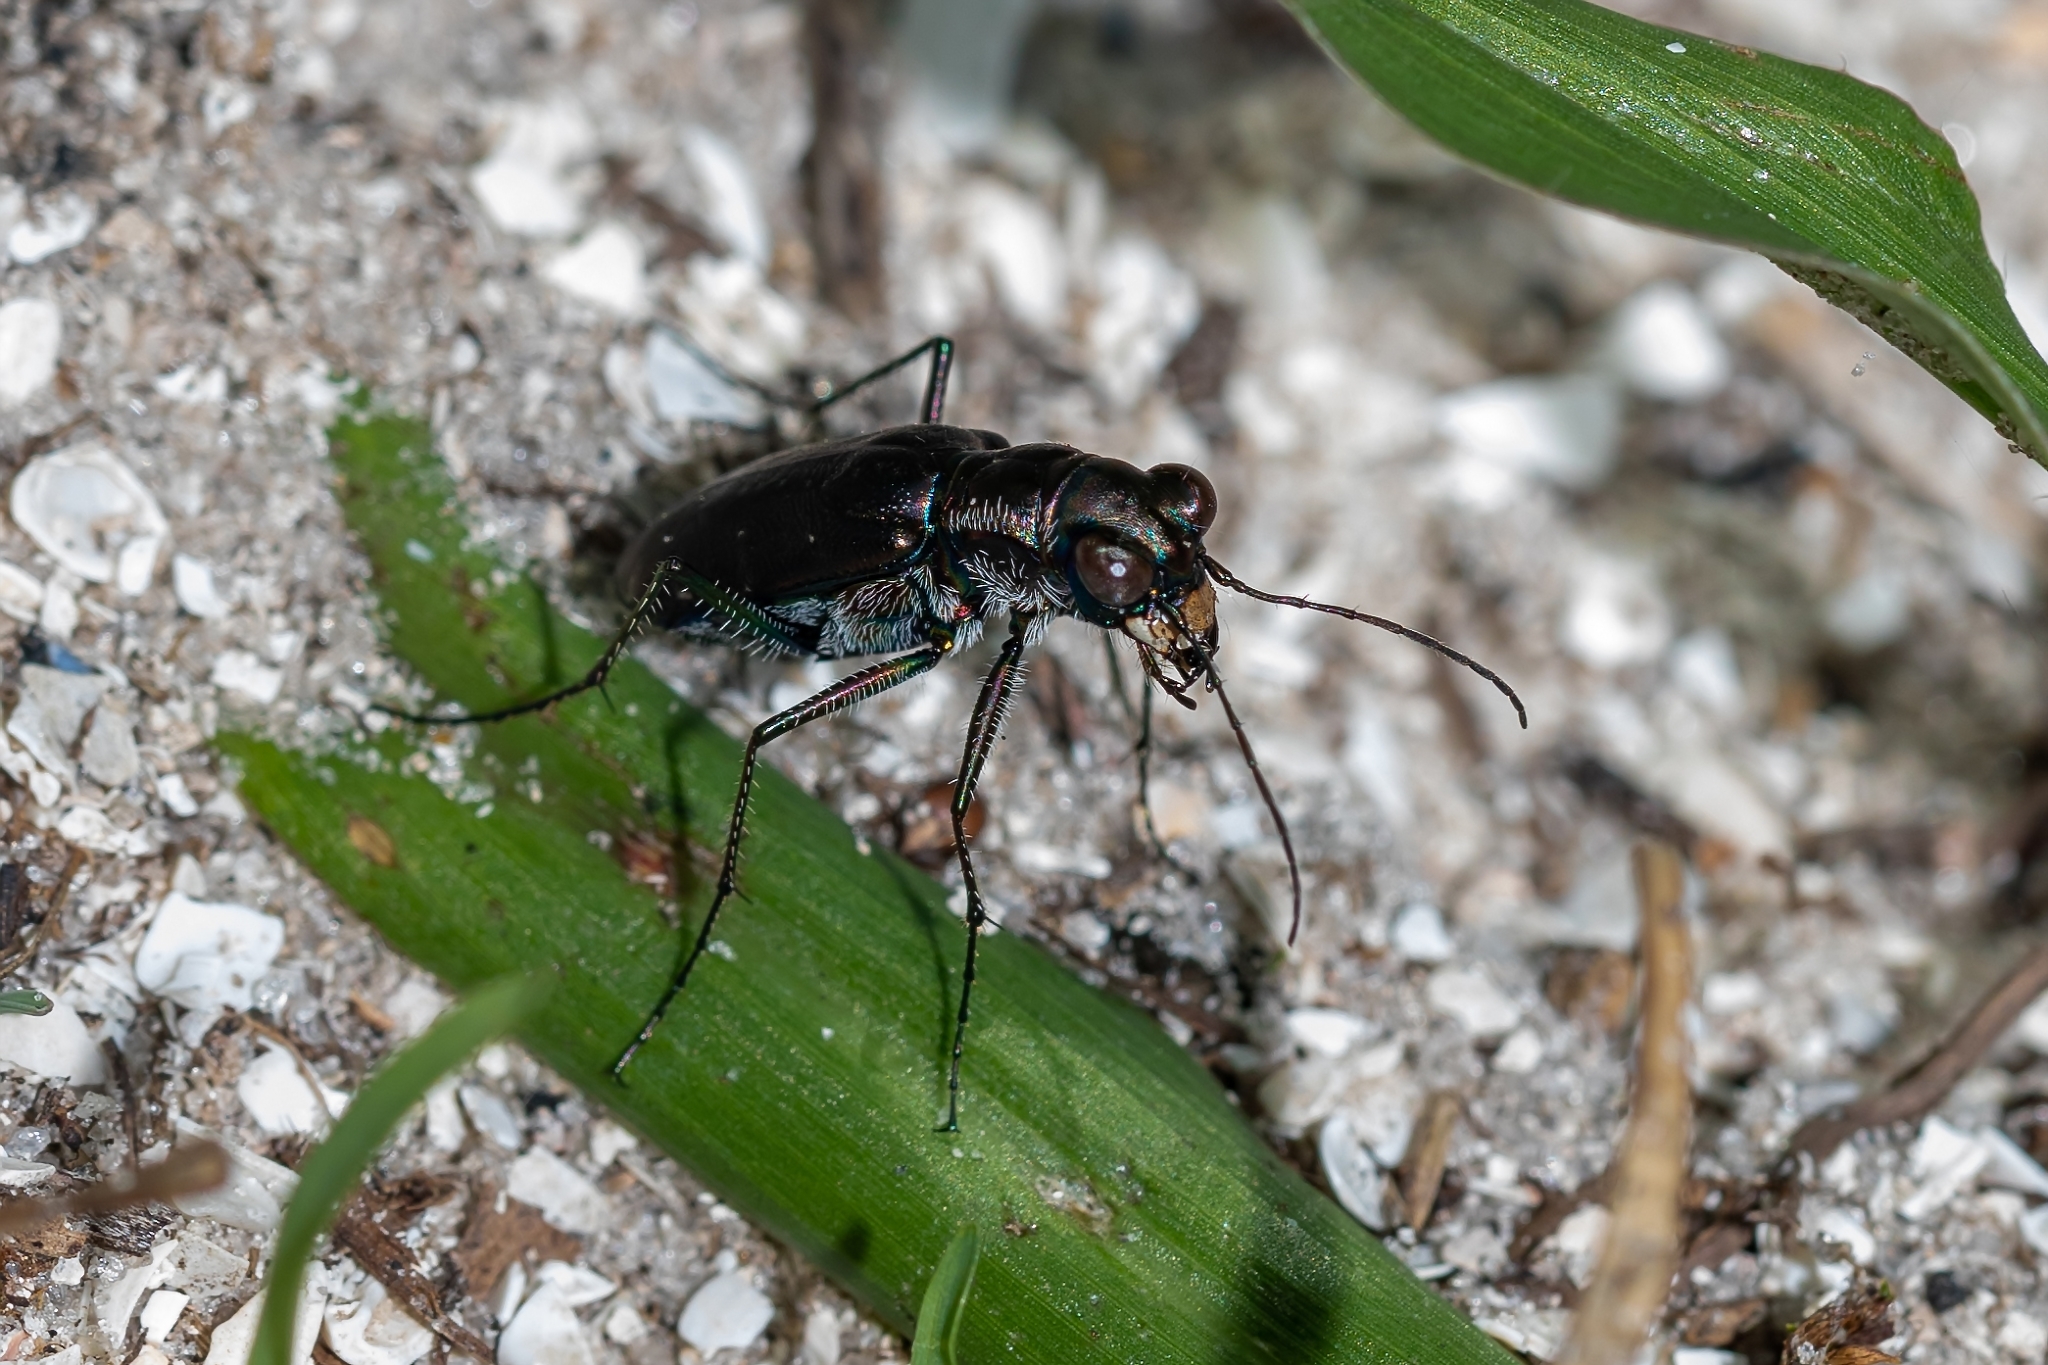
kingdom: Animalia
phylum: Arthropoda
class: Insecta
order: Coleoptera
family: Carabidae
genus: Cicindela
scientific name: Cicindela punctulata
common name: Punctured tiger beetle
